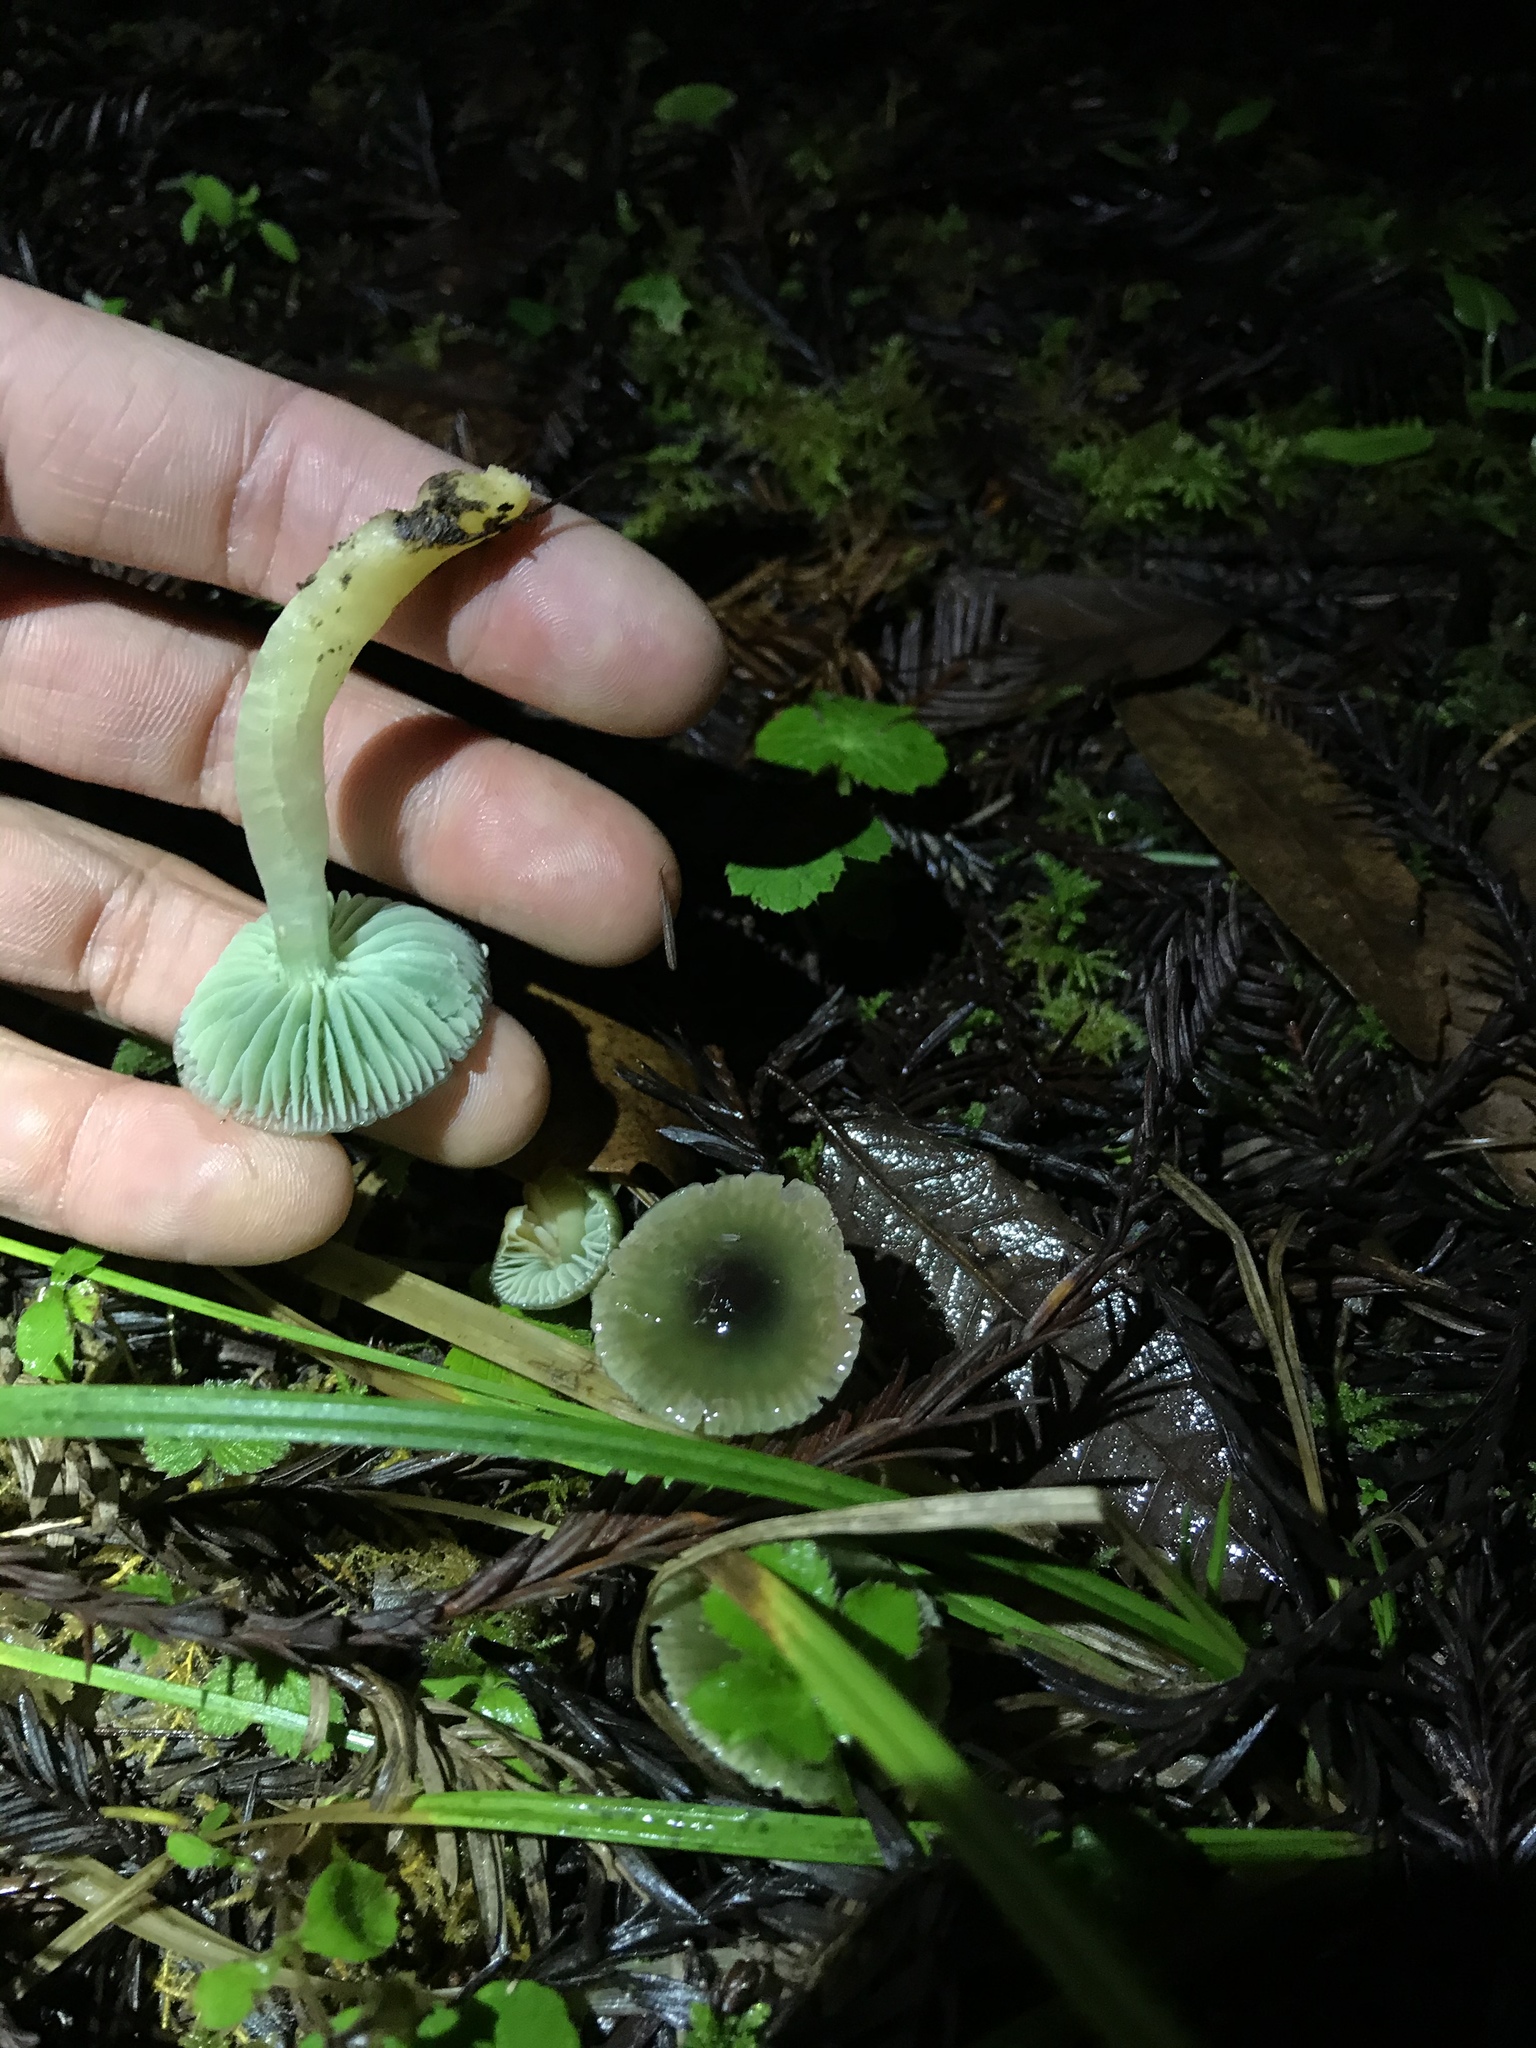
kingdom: Fungi
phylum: Basidiomycota
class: Agaricomycetes
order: Agaricales
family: Hygrophoraceae
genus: Gliophorus
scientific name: Gliophorus psittacinus
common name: Parrot wax-cap
